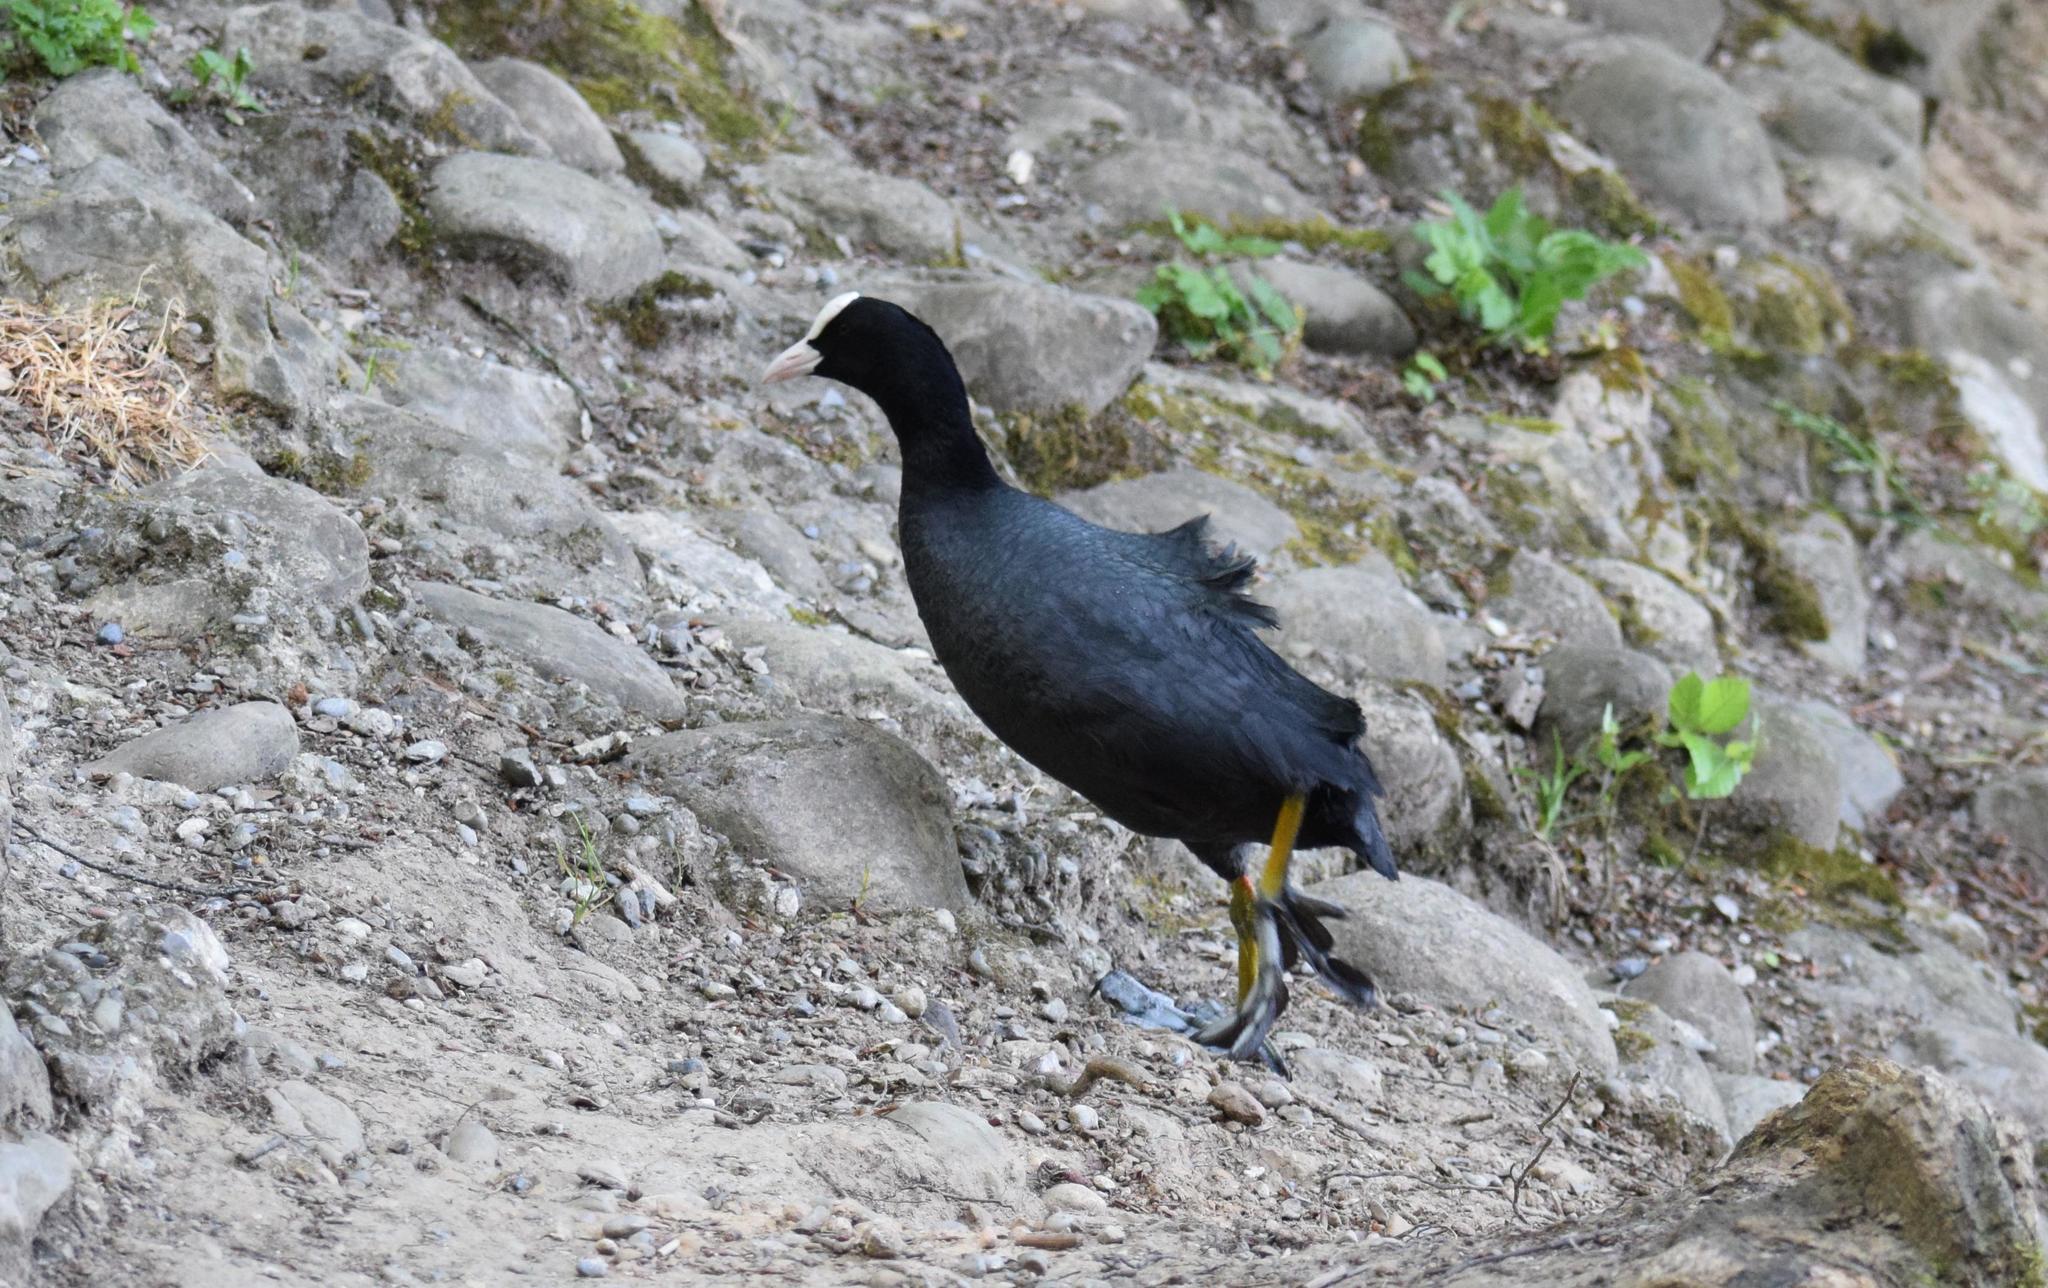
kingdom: Animalia
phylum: Chordata
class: Aves
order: Gruiformes
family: Rallidae
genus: Fulica
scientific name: Fulica atra
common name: Eurasian coot
